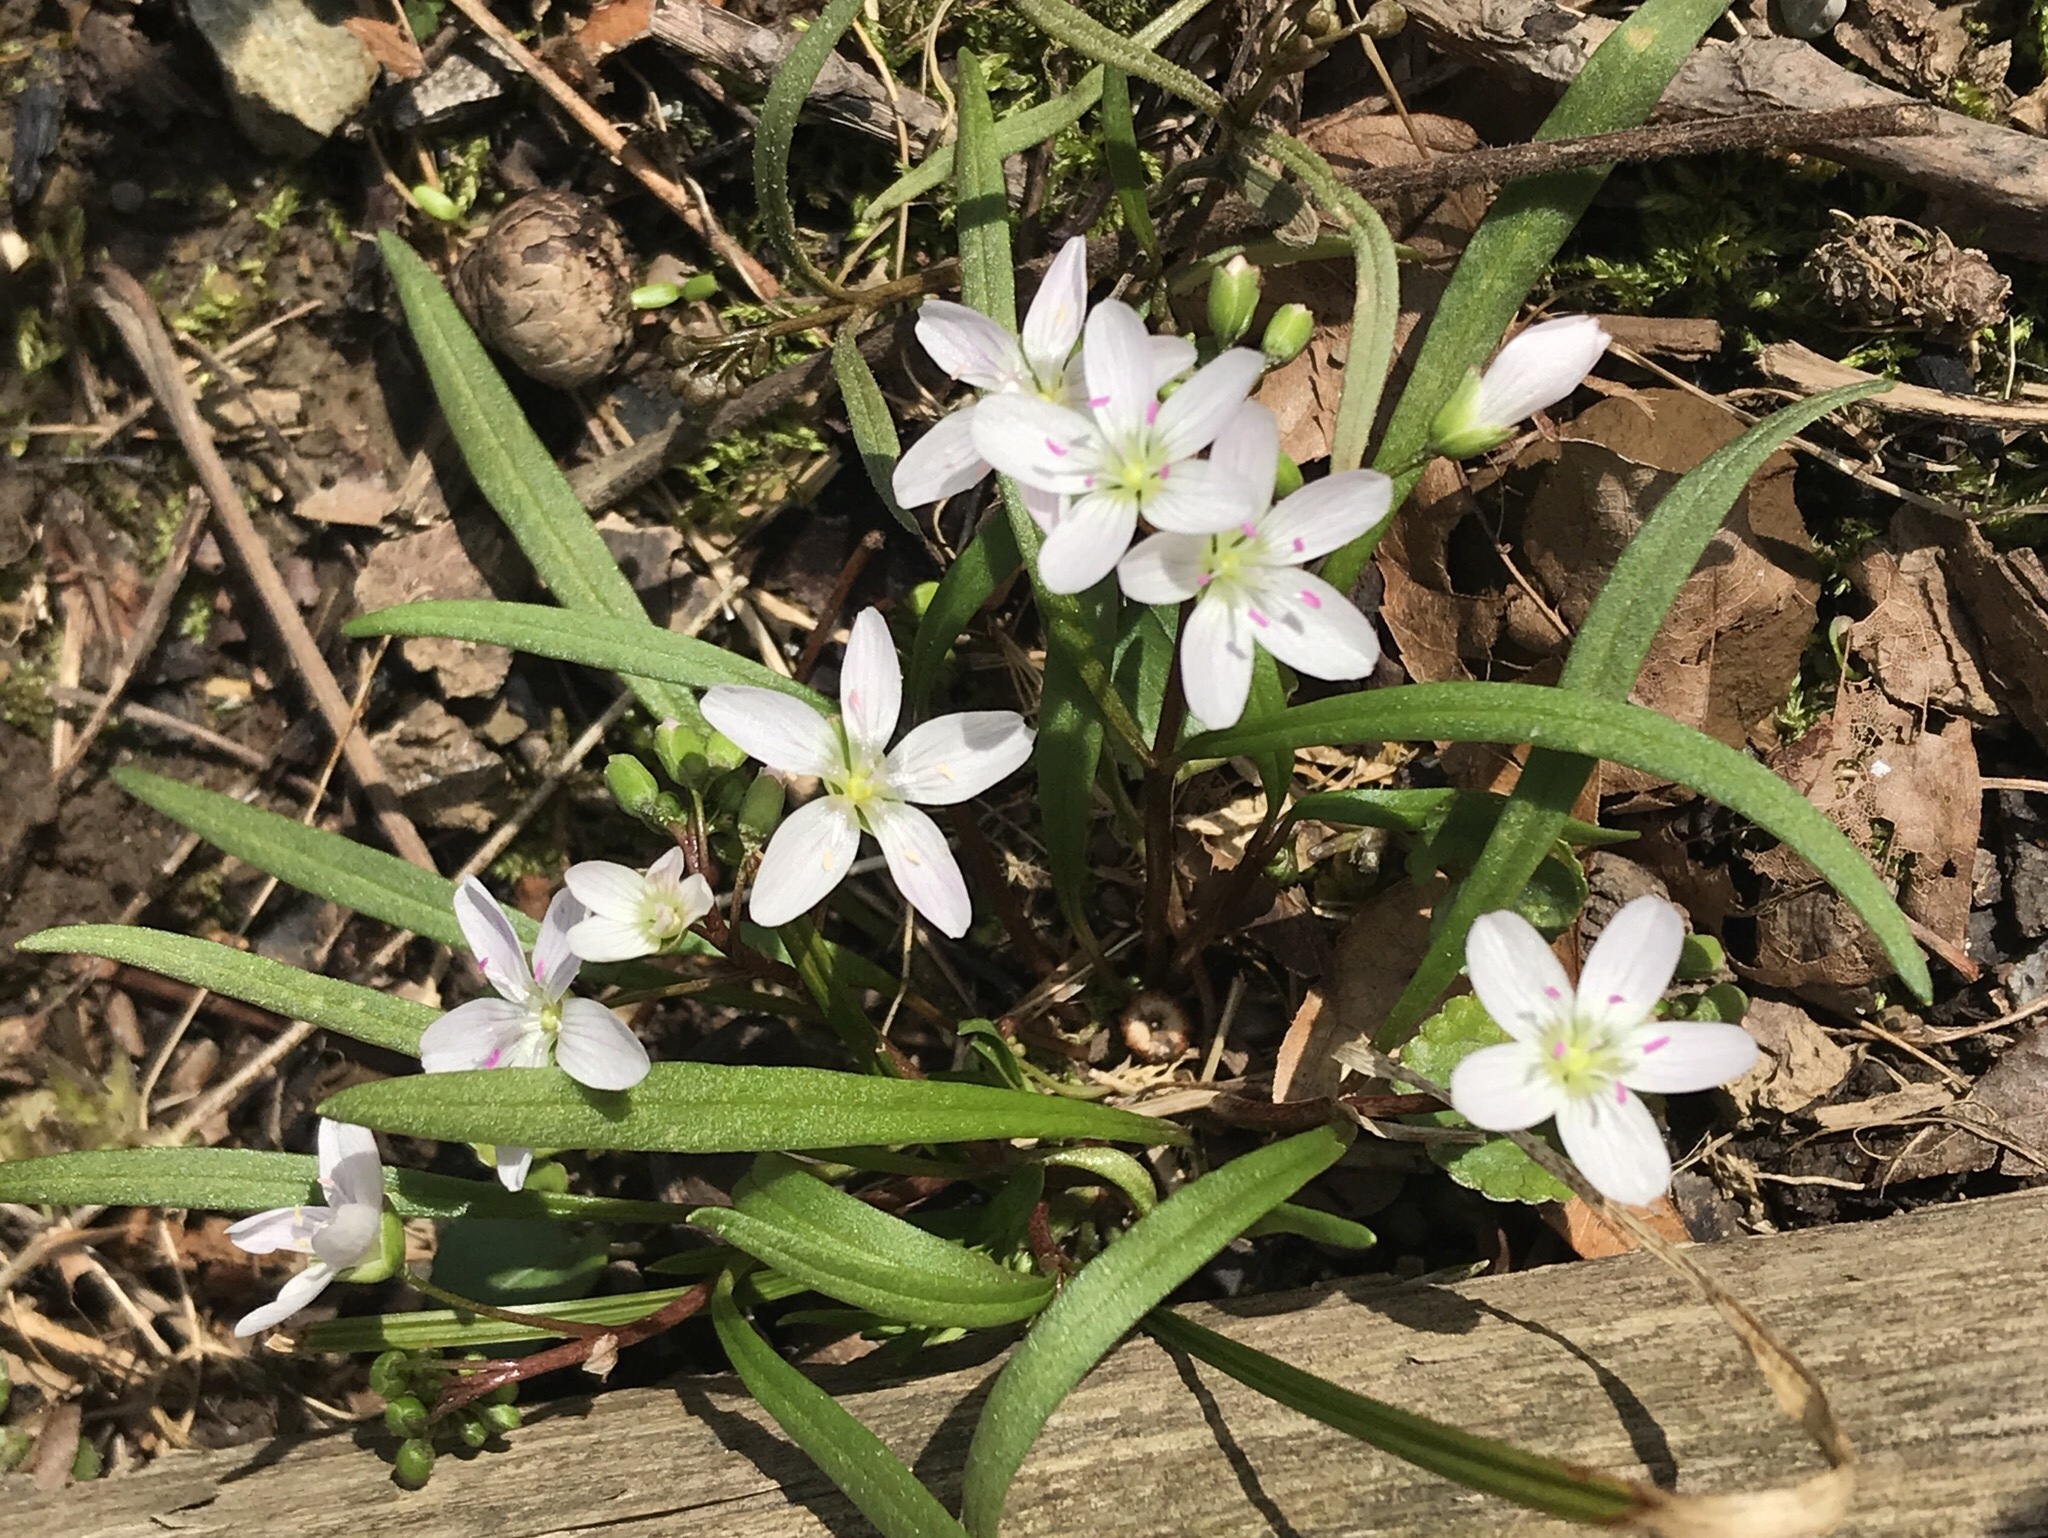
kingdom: Plantae
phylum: Tracheophyta
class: Magnoliopsida
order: Caryophyllales
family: Montiaceae
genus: Claytonia
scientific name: Claytonia virginica
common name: Virginia springbeauty
